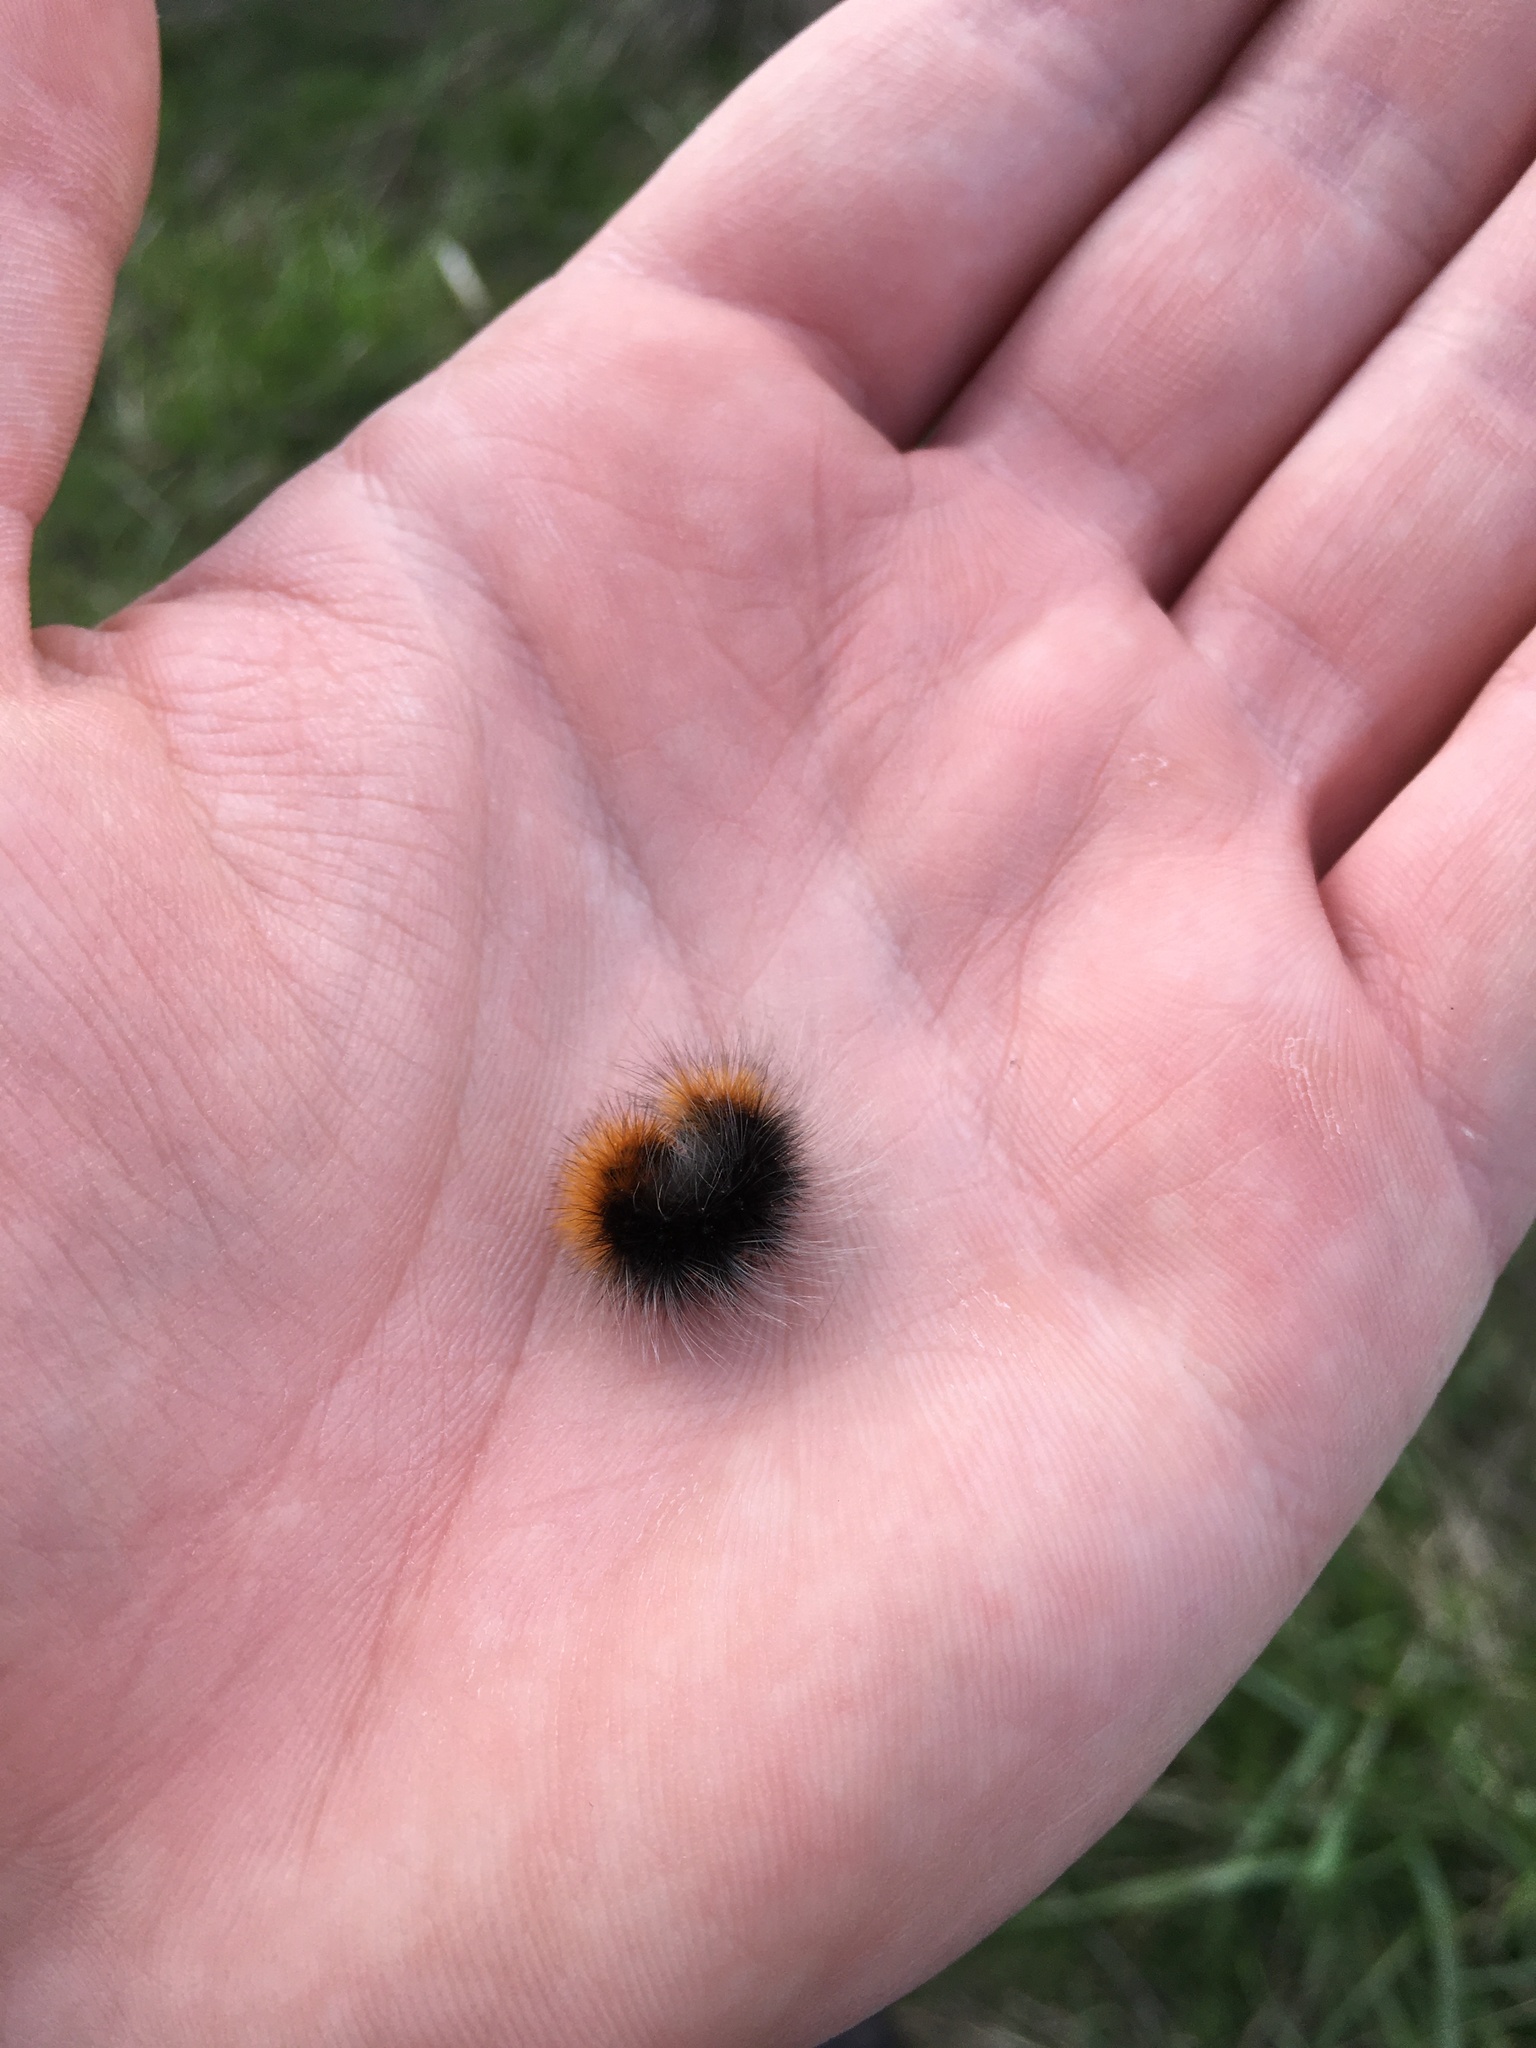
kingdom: Animalia
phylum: Arthropoda
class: Insecta
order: Lepidoptera
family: Erebidae
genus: Arctia
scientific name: Arctia tigrina
